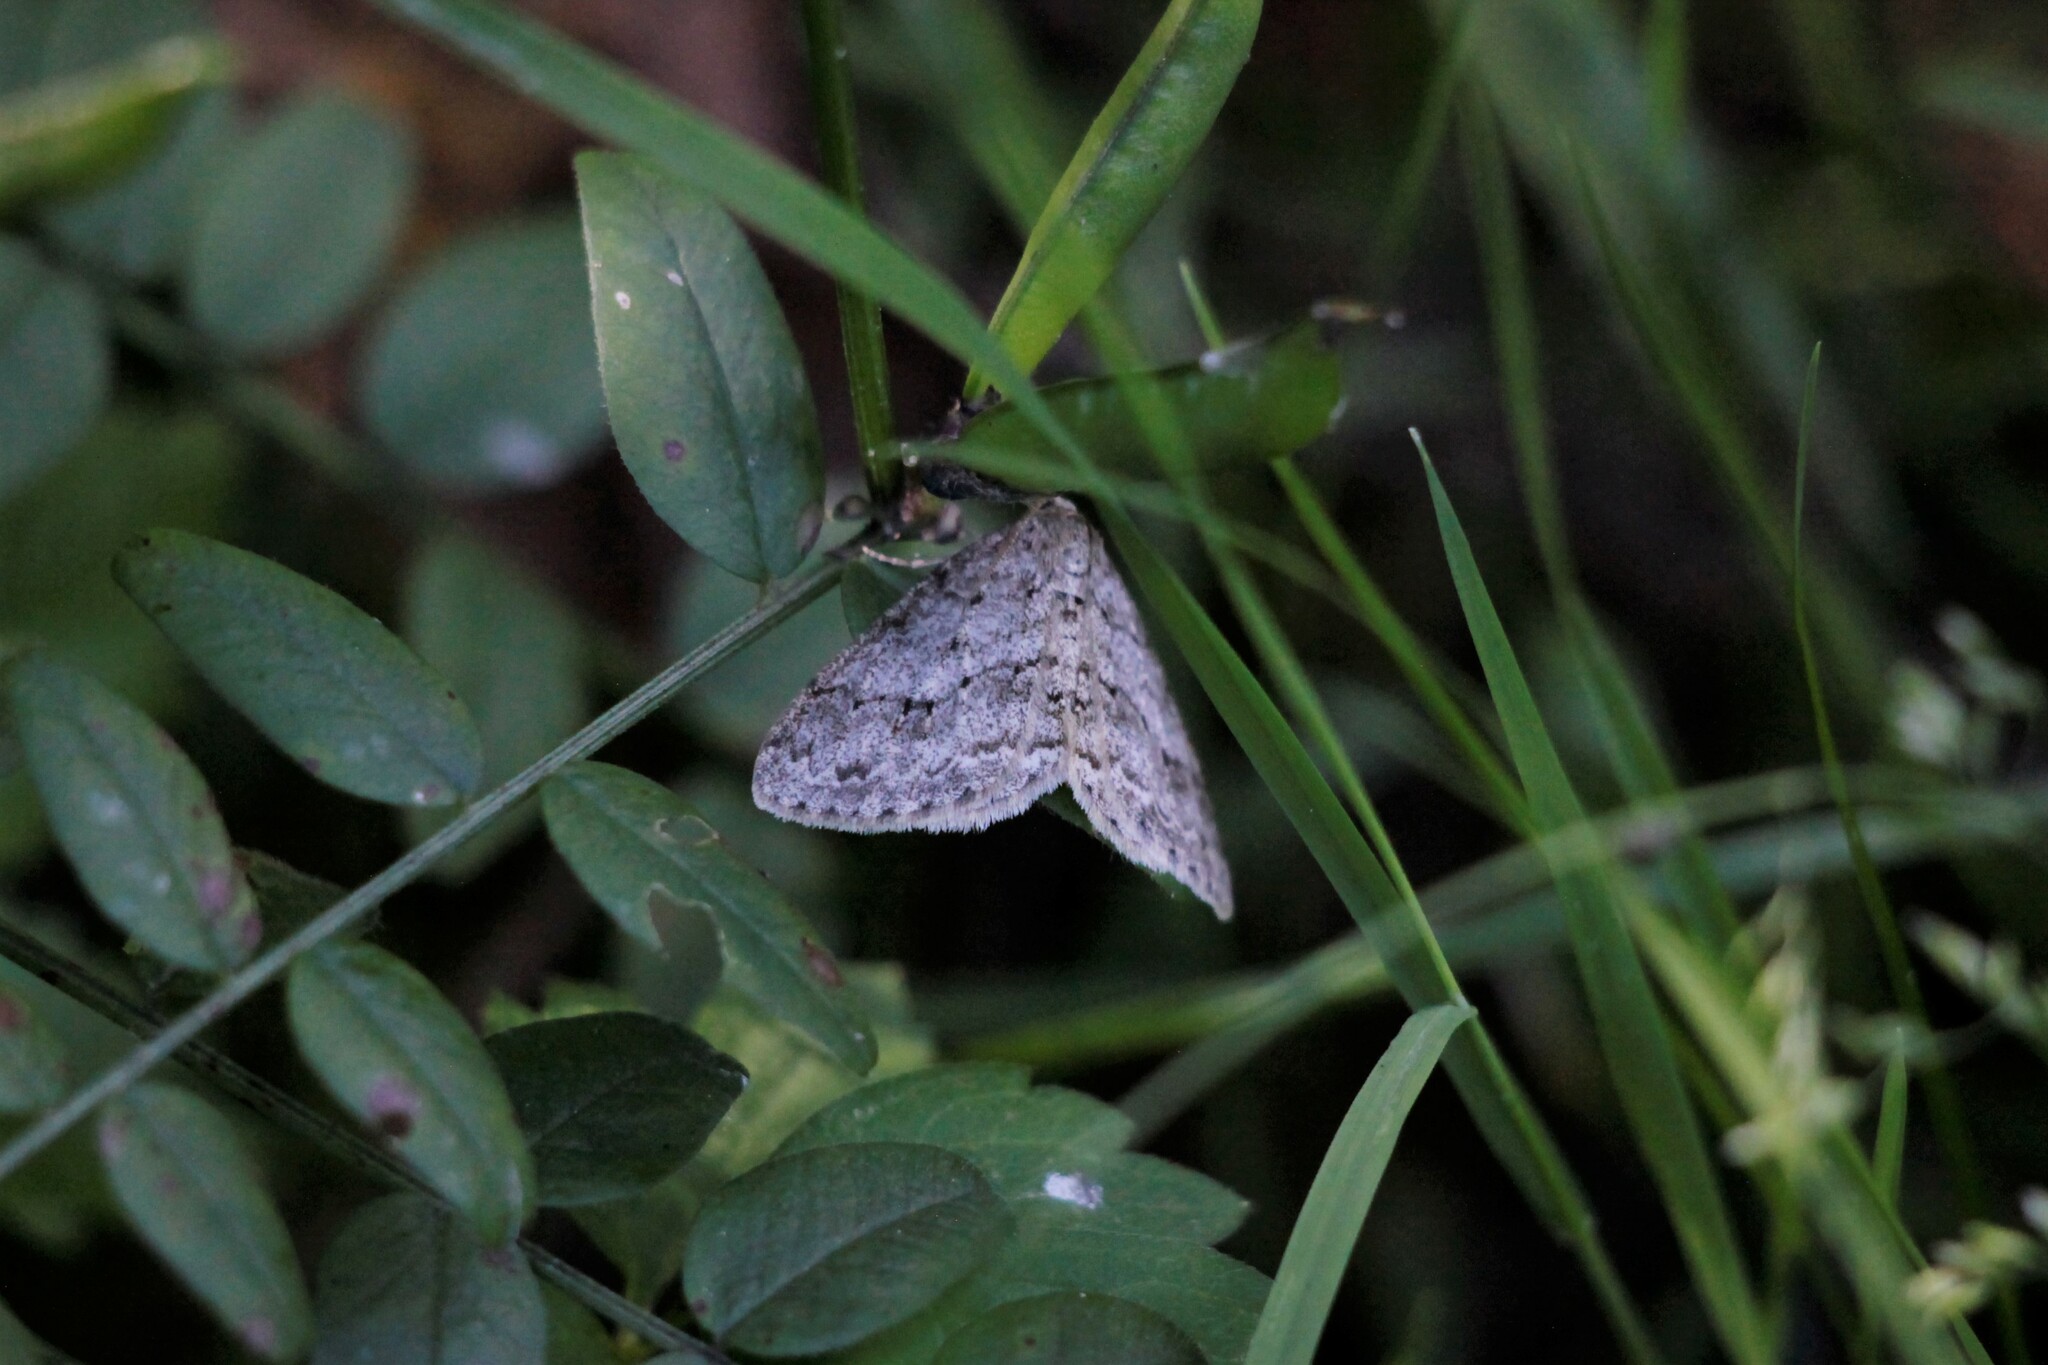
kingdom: Animalia
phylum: Arthropoda
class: Insecta
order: Lepidoptera
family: Geometridae
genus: Ectropis
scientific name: Ectropis crepuscularia
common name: Engrailed
